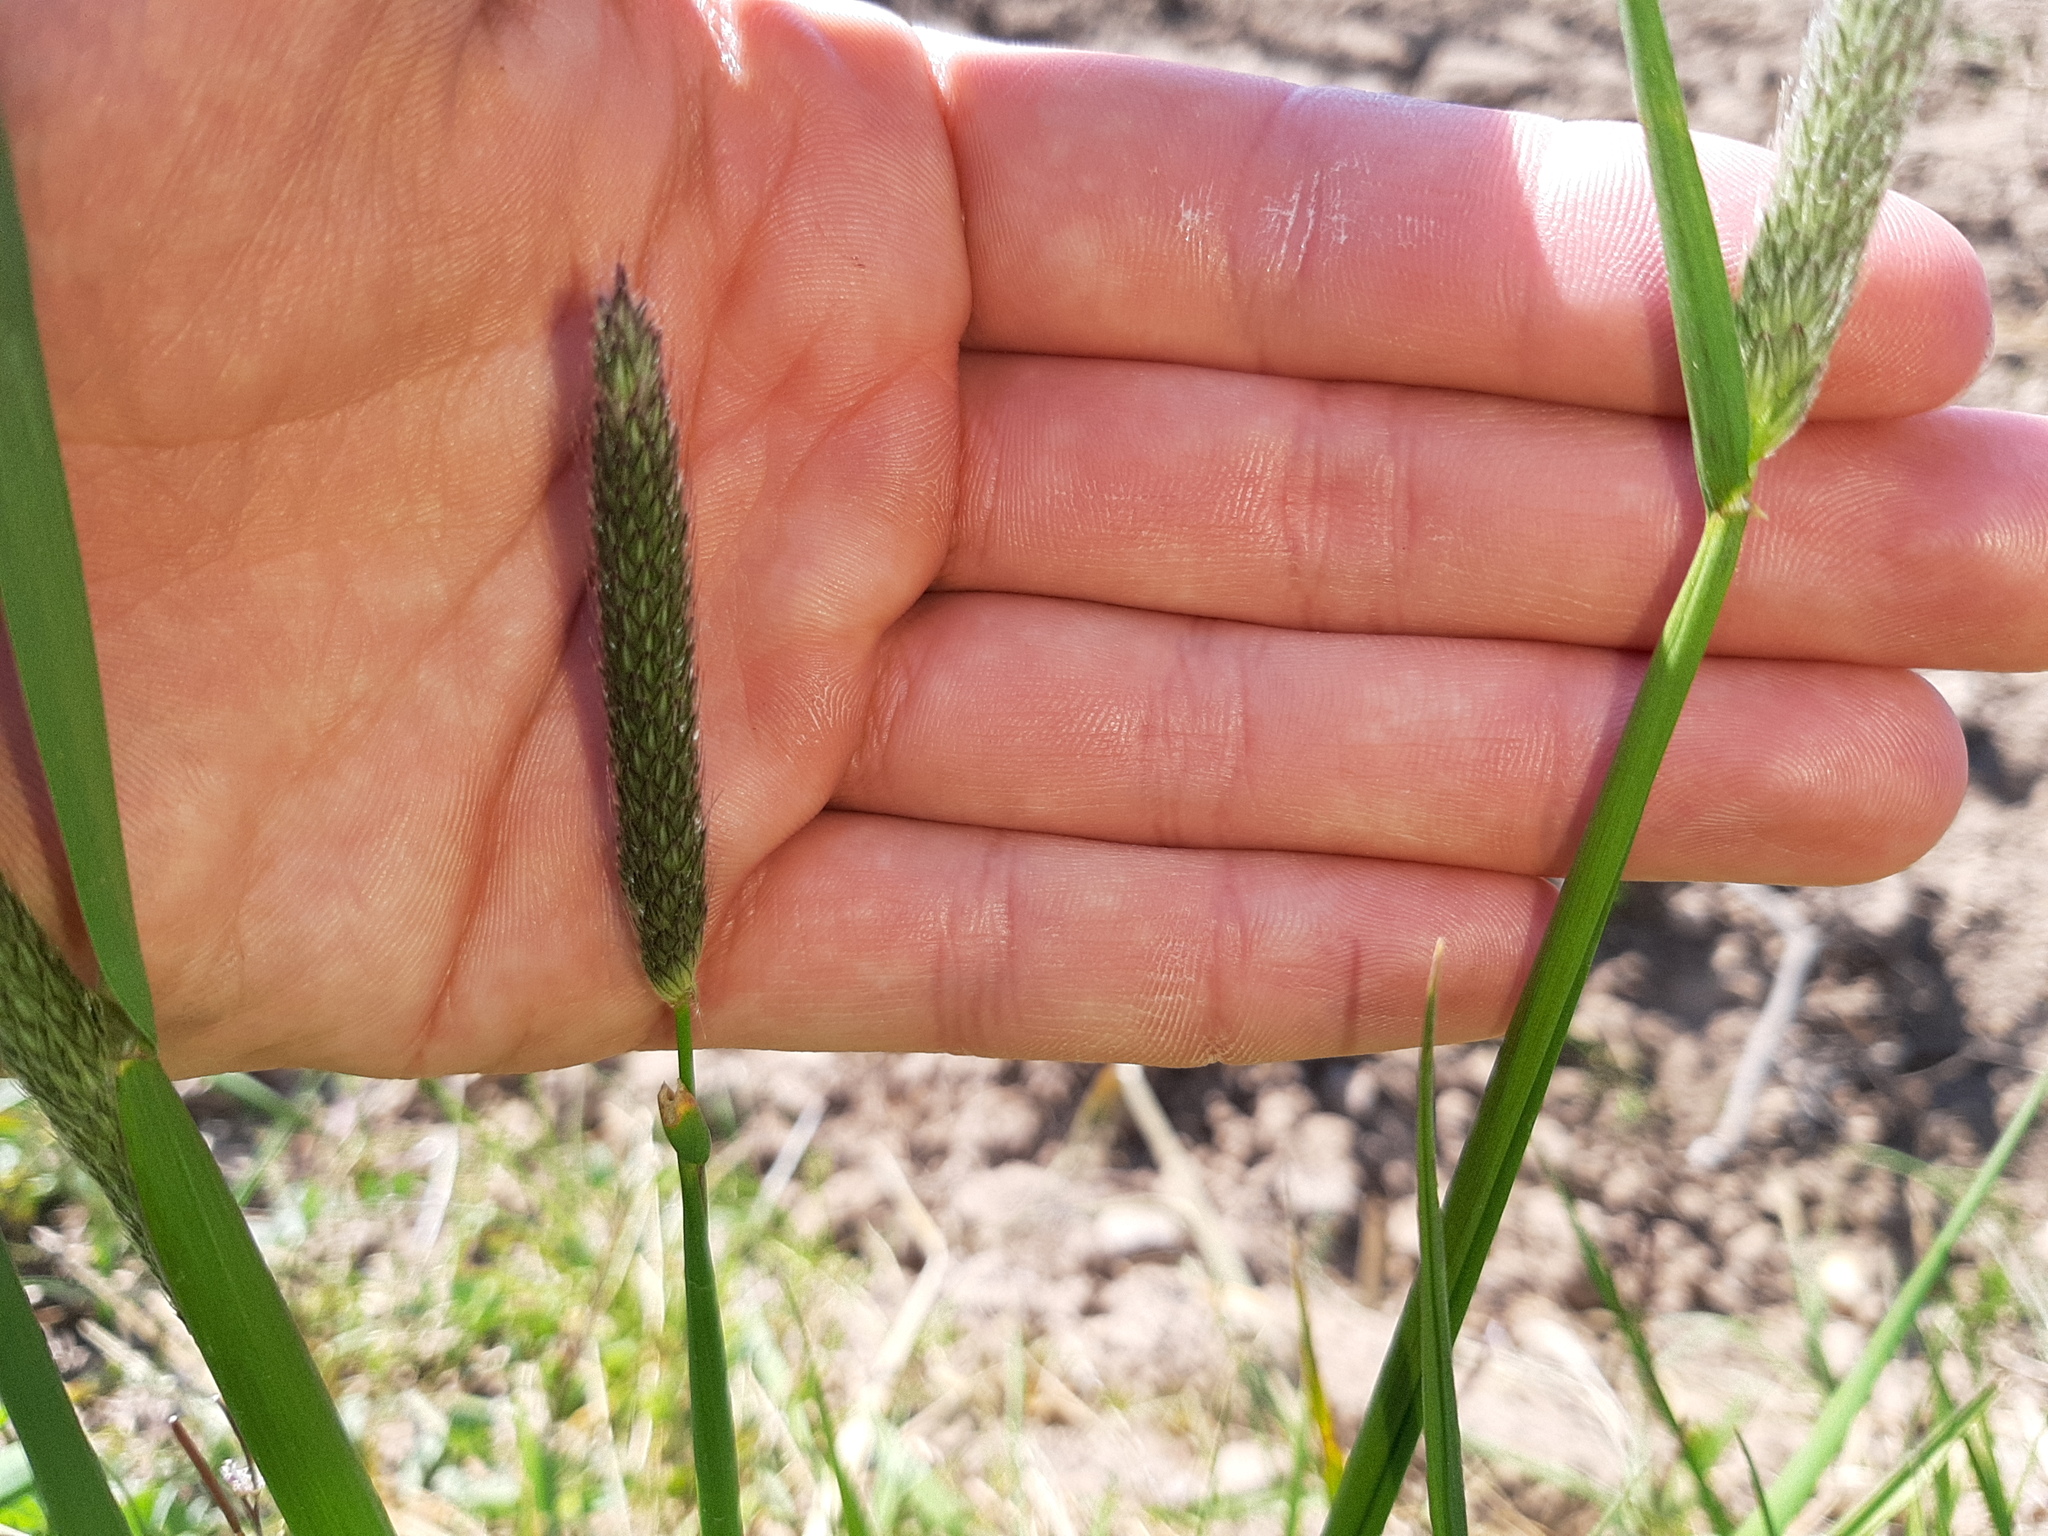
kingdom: Plantae
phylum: Tracheophyta
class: Liliopsida
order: Poales
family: Poaceae
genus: Alopecurus
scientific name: Alopecurus pratensis
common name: Meadow foxtail
